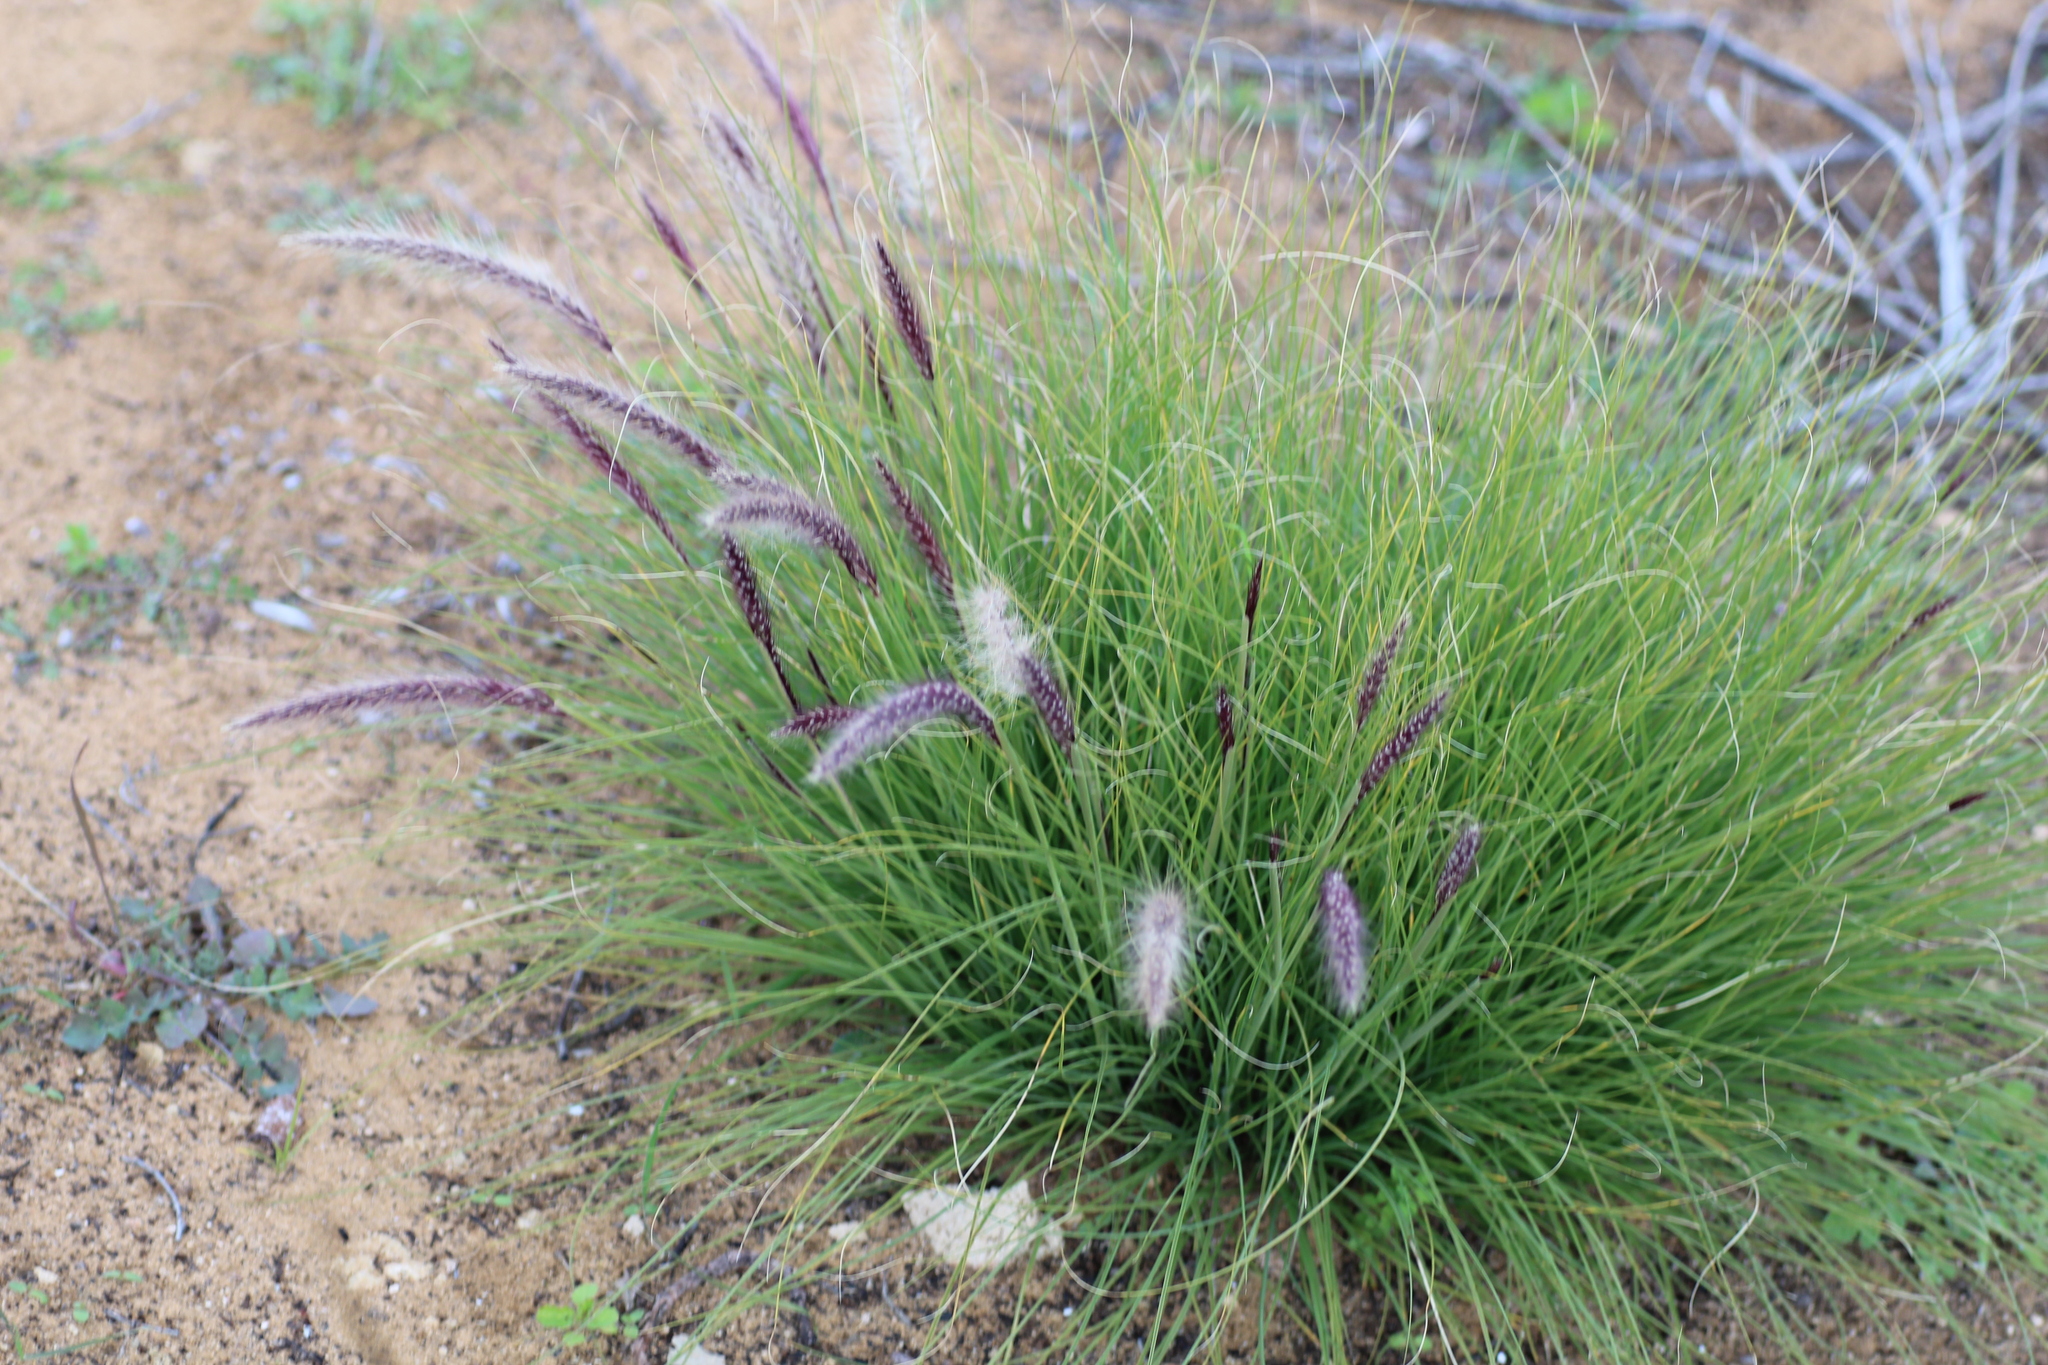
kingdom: Plantae
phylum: Tracheophyta
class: Liliopsida
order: Poales
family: Poaceae
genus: Cenchrus
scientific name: Cenchrus setaceus
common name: Crimson fountaingrass
